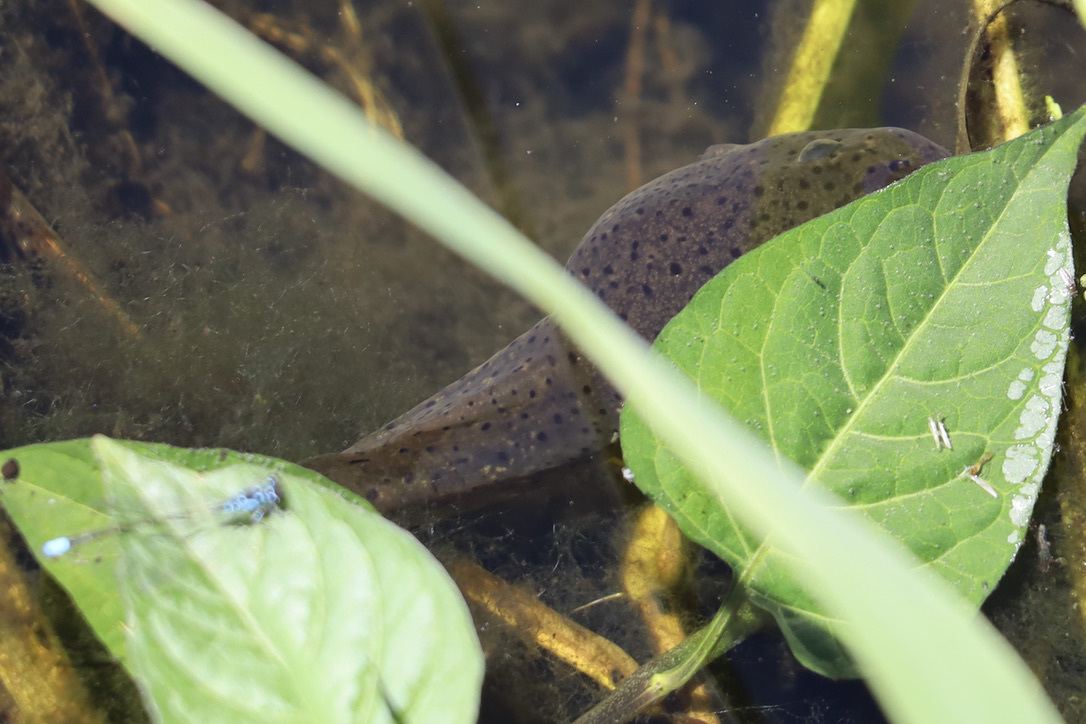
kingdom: Animalia
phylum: Chordata
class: Amphibia
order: Anura
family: Ranidae
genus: Lithobates
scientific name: Lithobates catesbeianus
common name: American bullfrog
